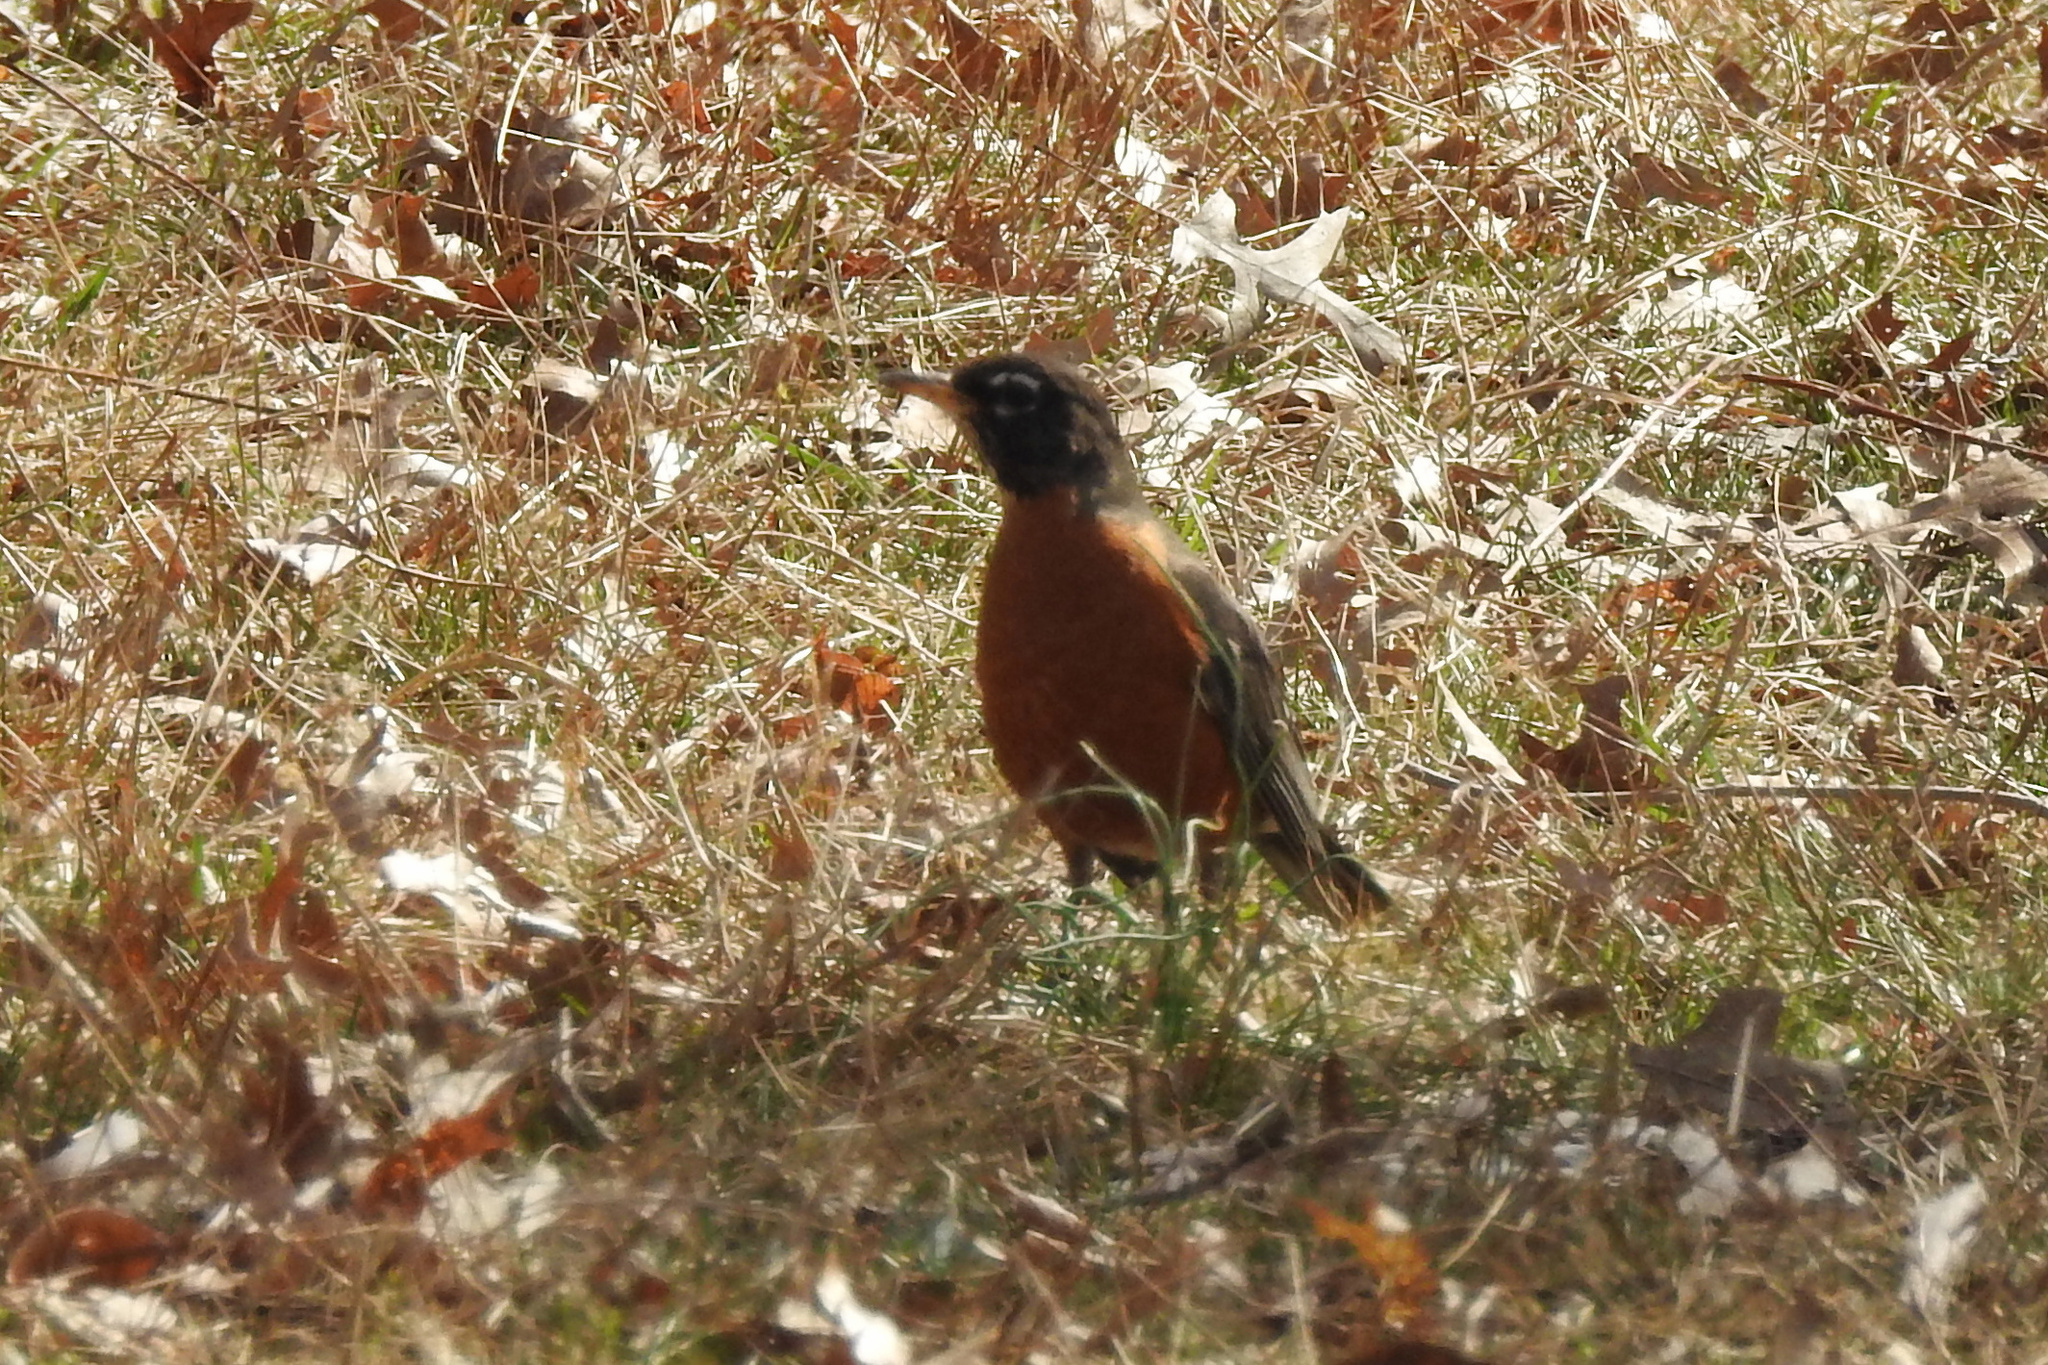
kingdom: Animalia
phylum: Chordata
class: Aves
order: Passeriformes
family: Turdidae
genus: Turdus
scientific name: Turdus migratorius
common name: American robin
